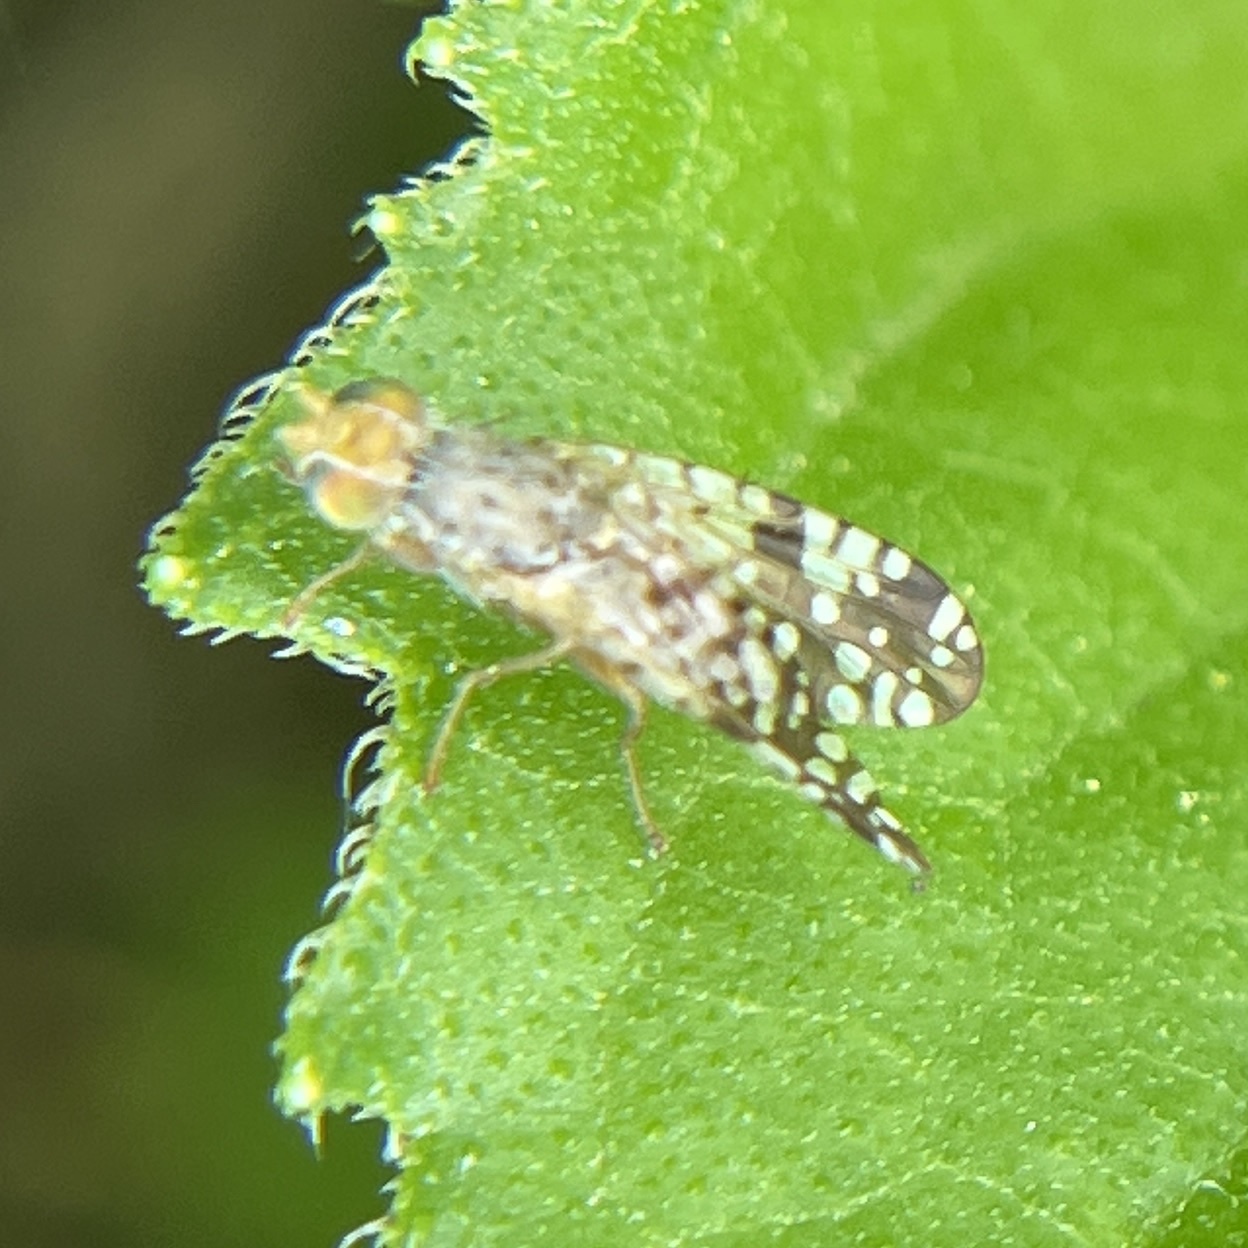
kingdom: Animalia
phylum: Arthropoda
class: Insecta
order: Diptera
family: Tephritidae
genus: Neotephritis
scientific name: Neotephritis finalis
